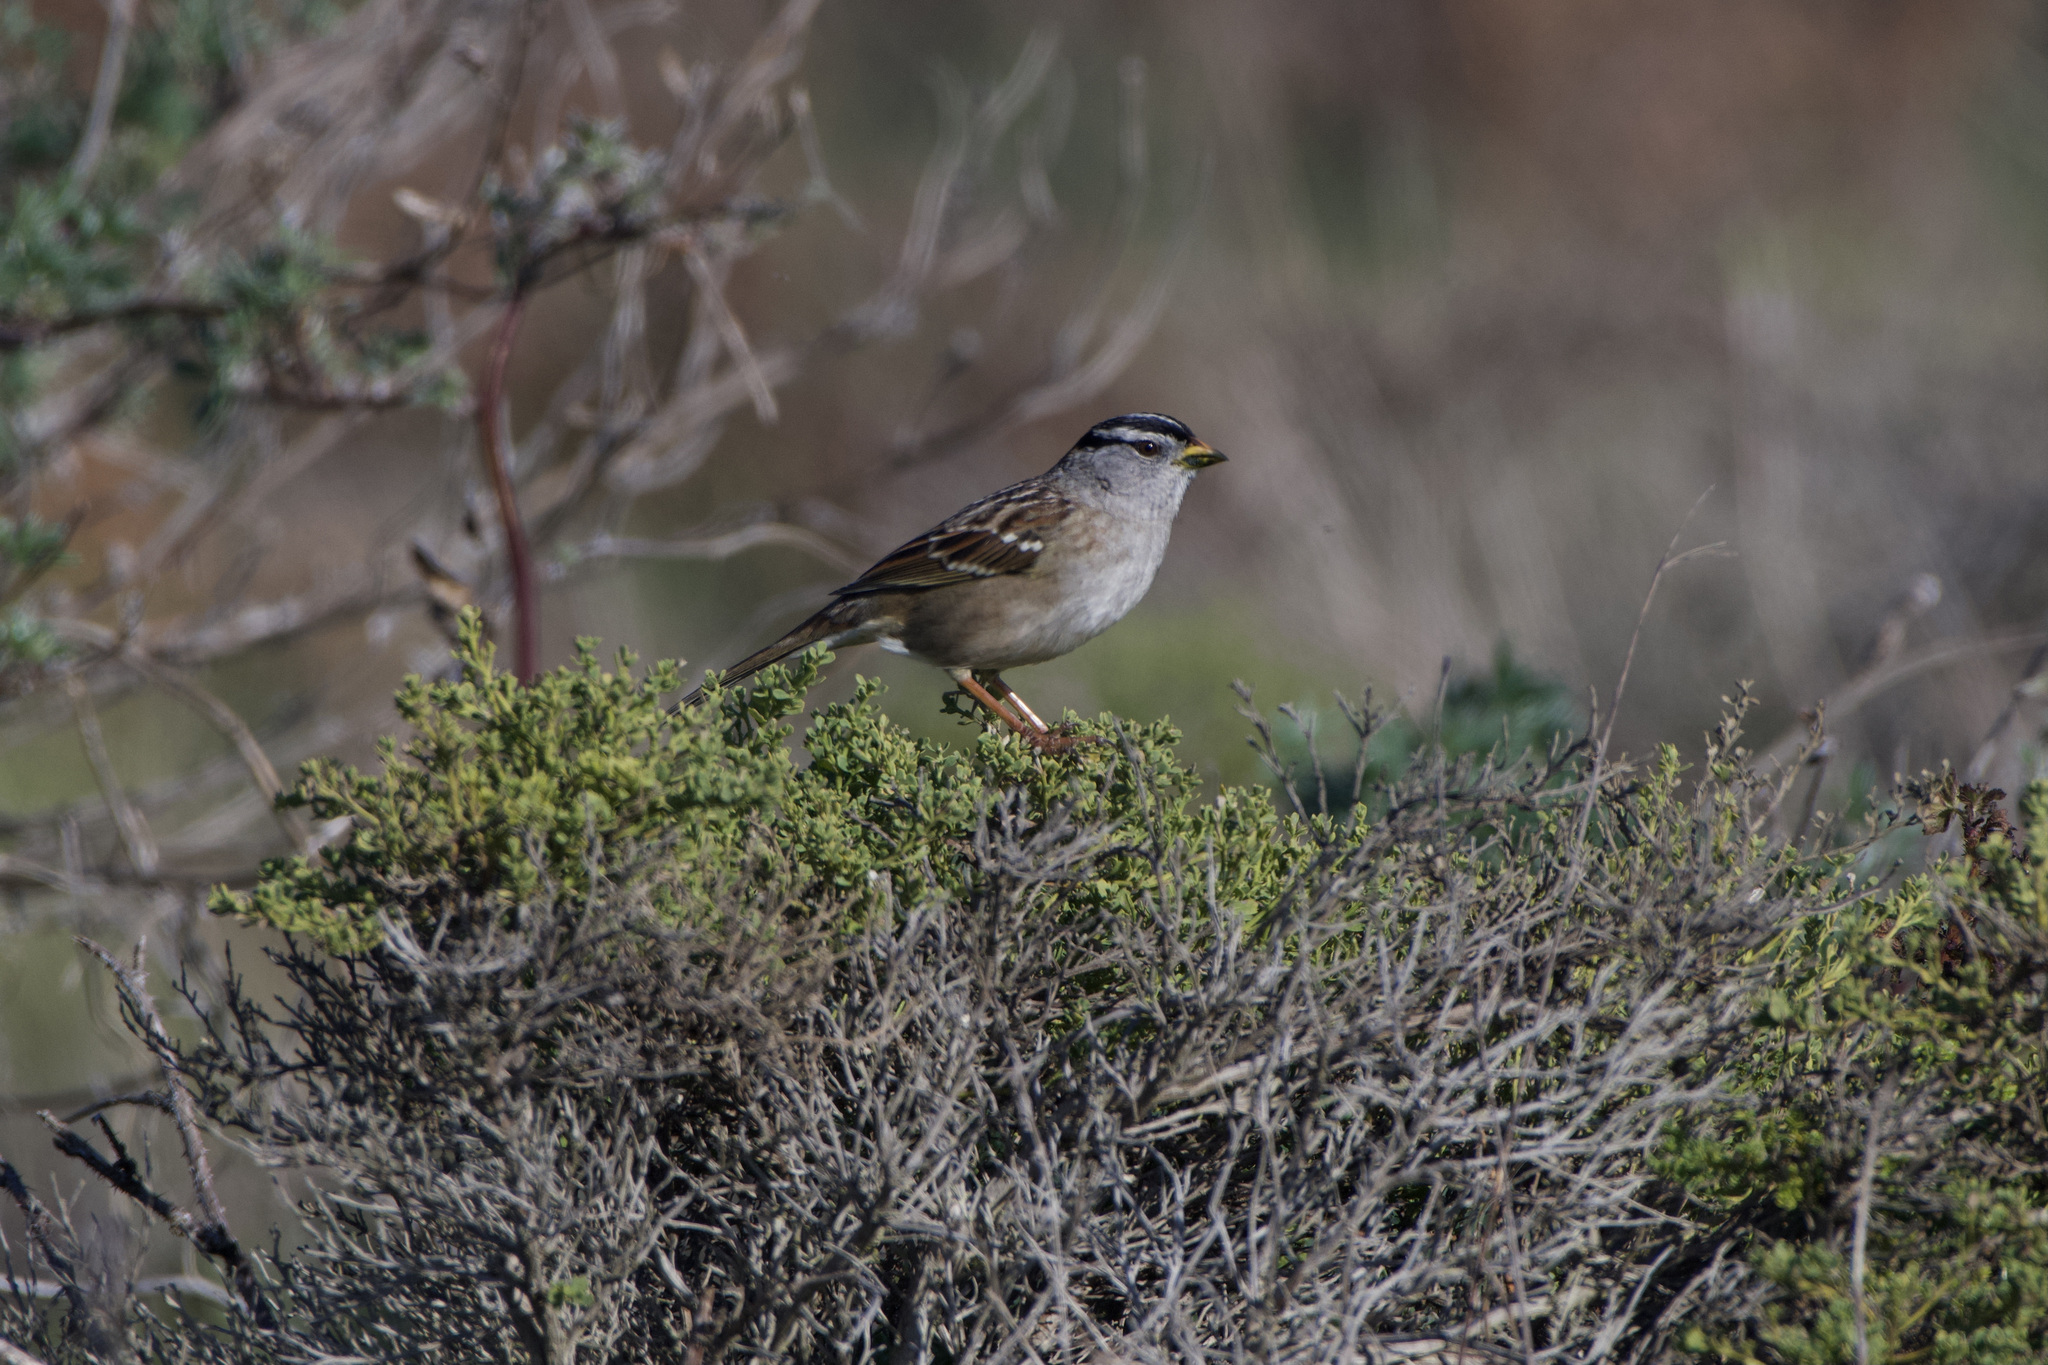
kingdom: Animalia
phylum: Chordata
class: Aves
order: Passeriformes
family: Passerellidae
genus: Zonotrichia
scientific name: Zonotrichia leucophrys
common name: White-crowned sparrow
